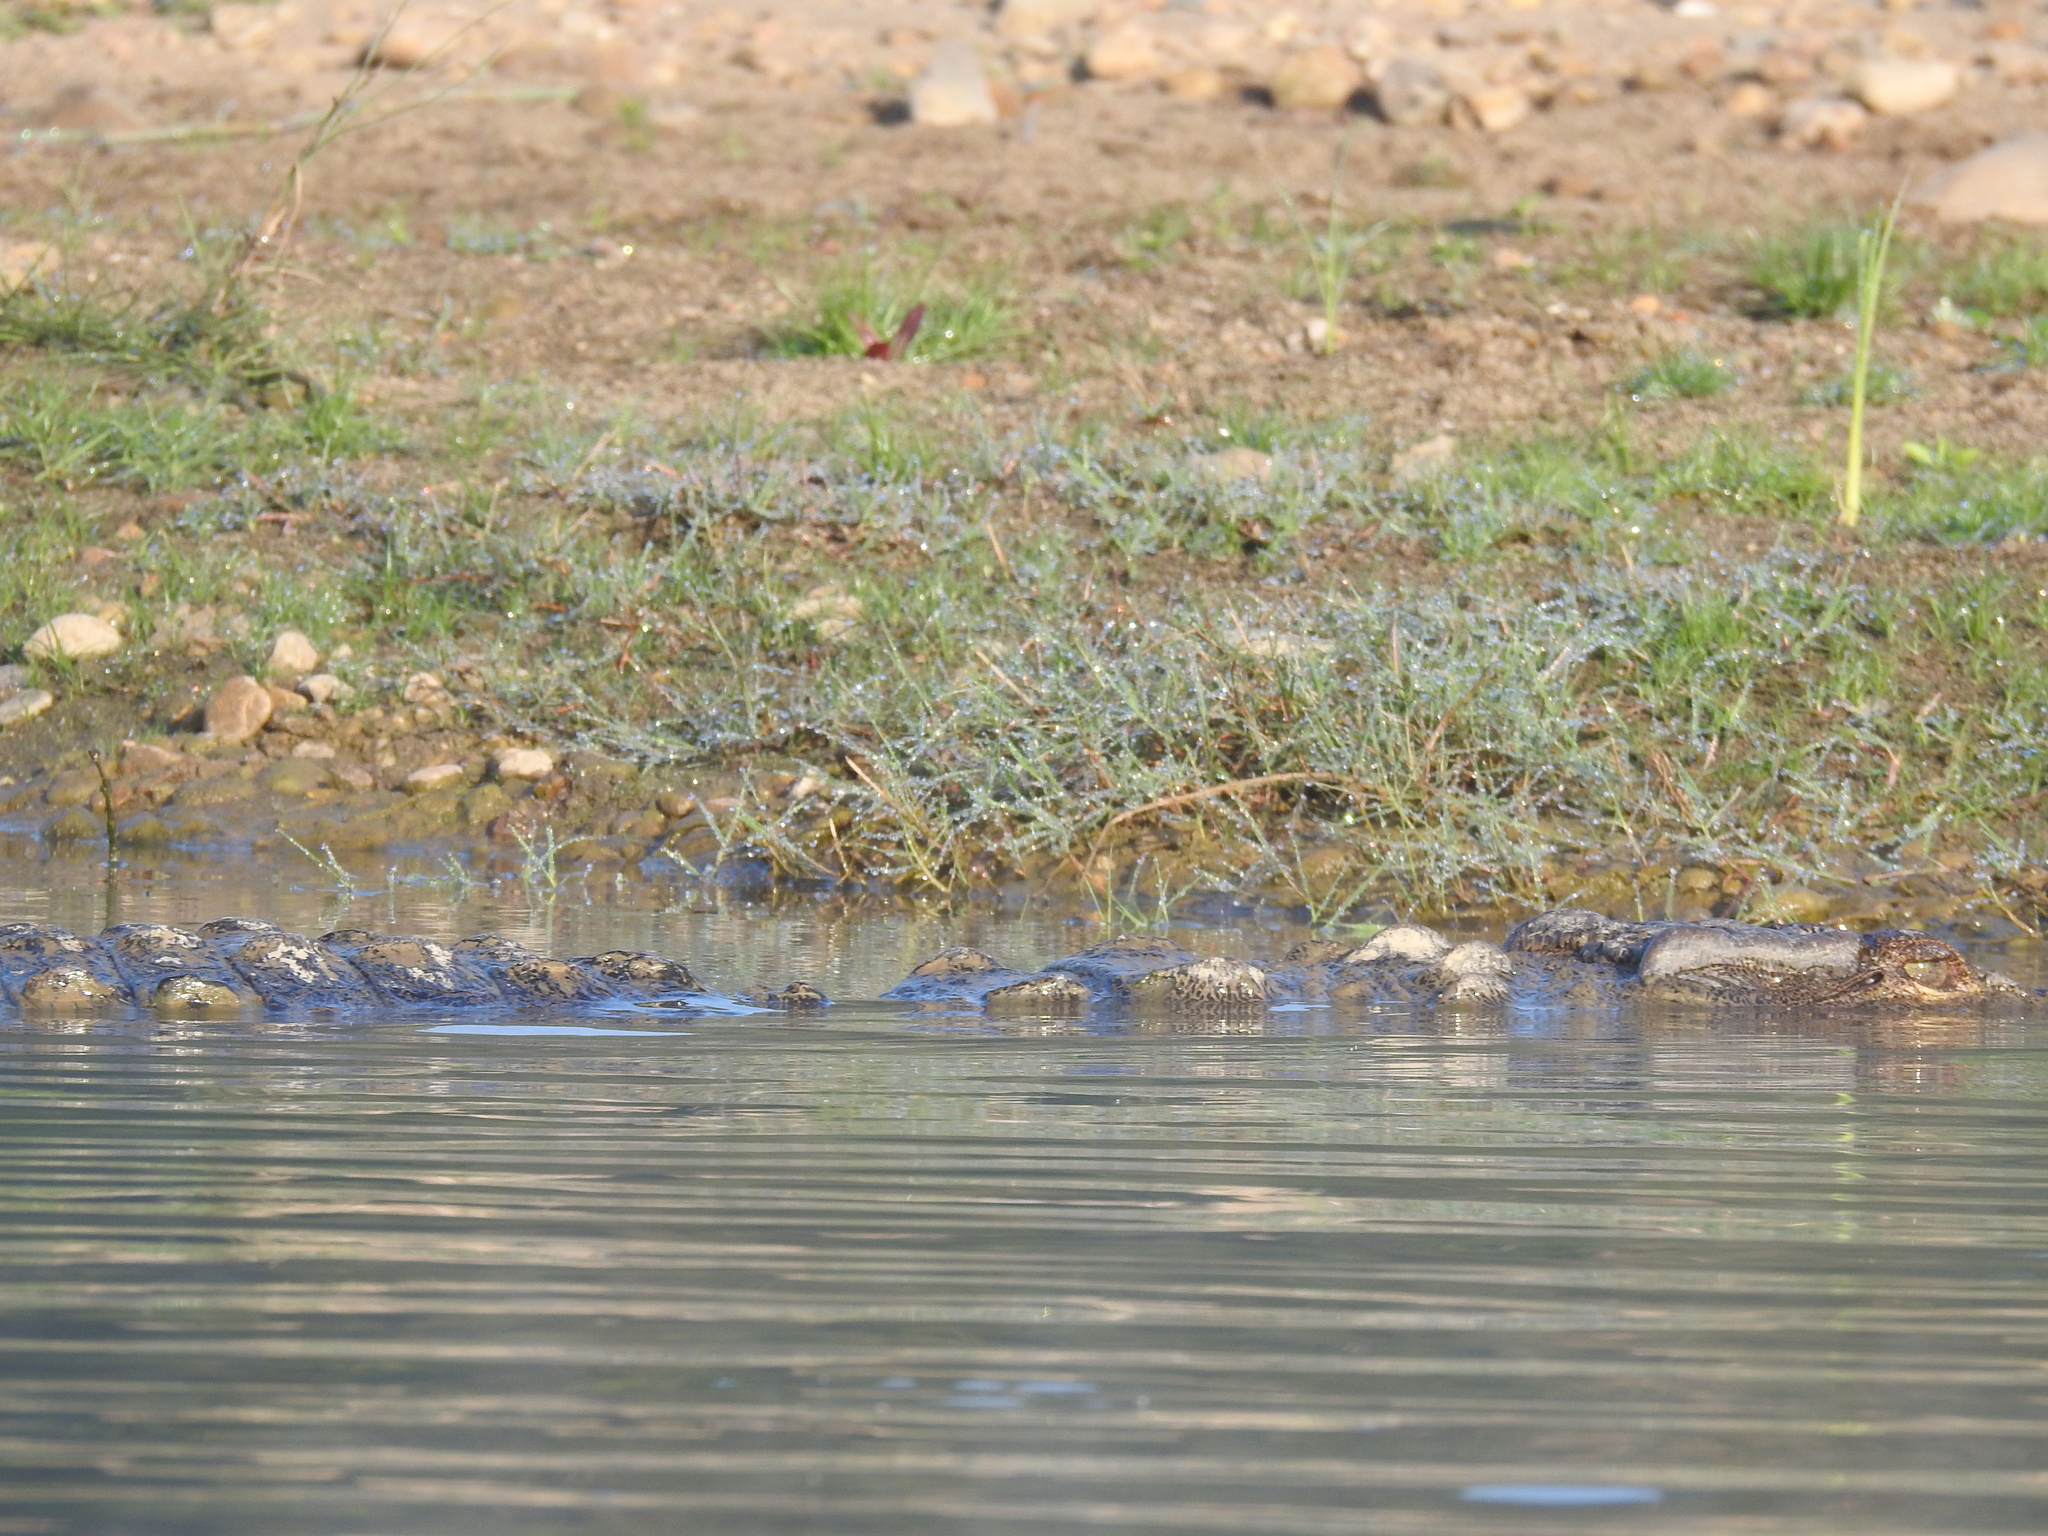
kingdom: Animalia
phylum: Chordata
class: Crocodylia
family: Crocodylidae
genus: Crocodylus
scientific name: Crocodylus palustris
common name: Mugger crocodile
